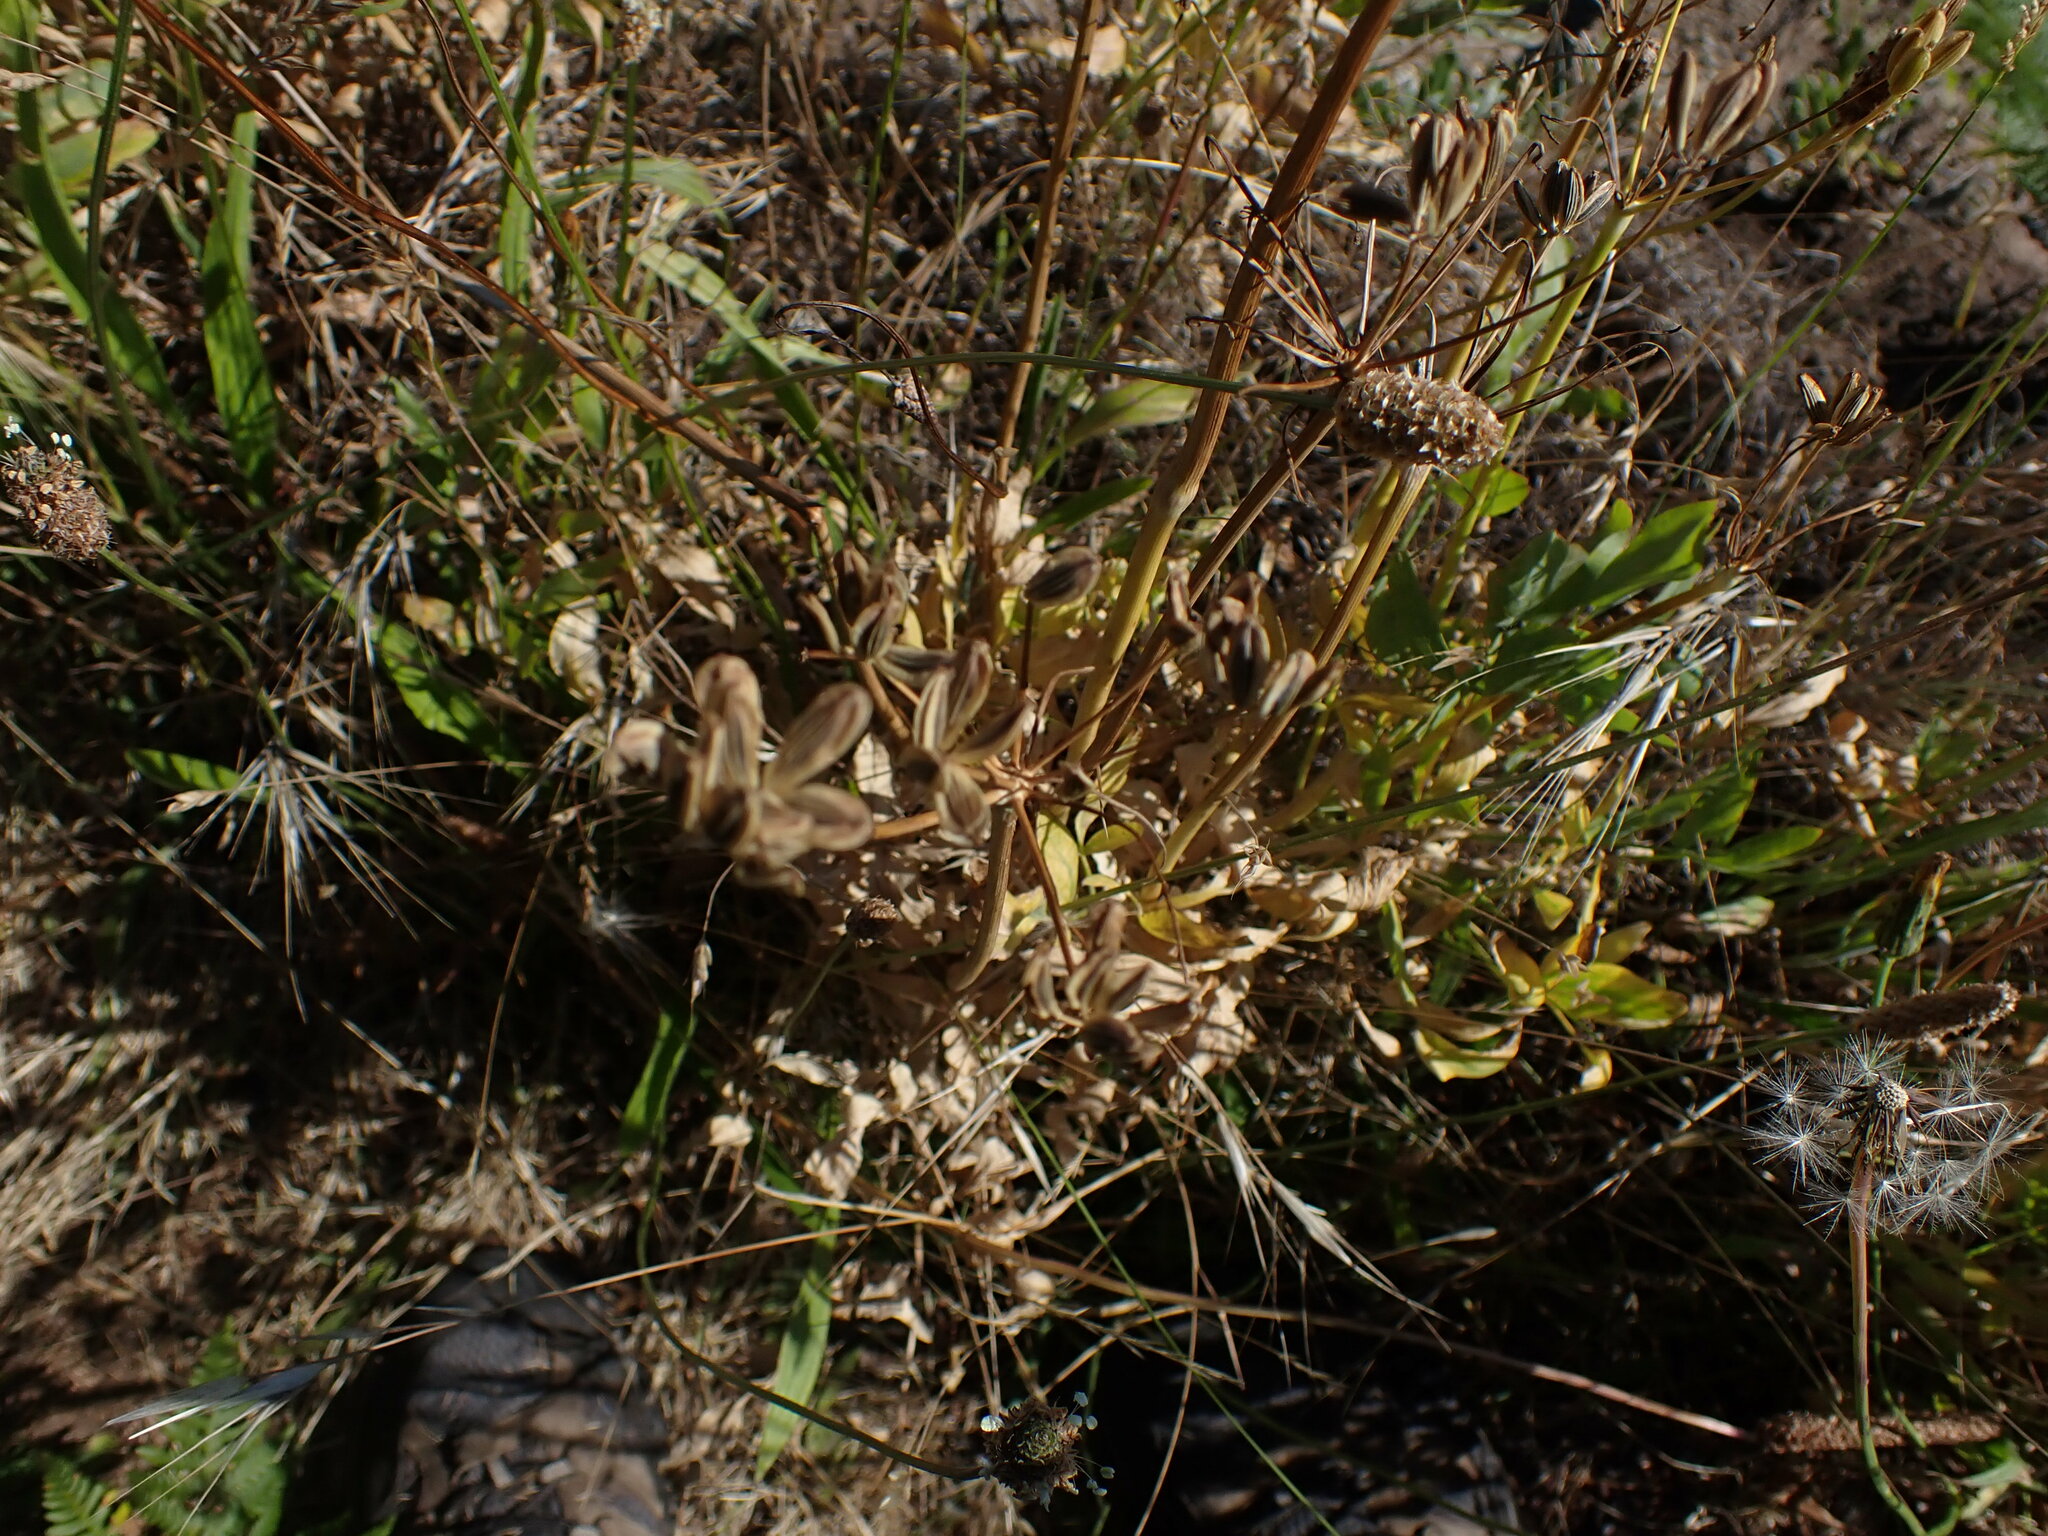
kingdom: Plantae
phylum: Tracheophyta
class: Magnoliopsida
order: Apiales
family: Apiaceae
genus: Lomatium
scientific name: Lomatium nudicaule
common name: Pestle lomatium
